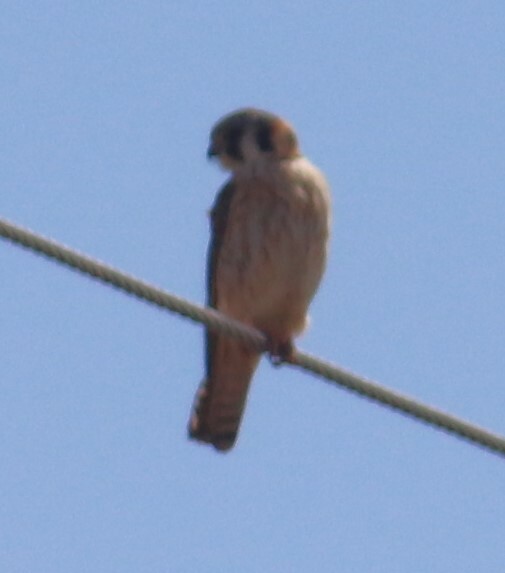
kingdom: Animalia
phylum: Chordata
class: Aves
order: Falconiformes
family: Falconidae
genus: Falco
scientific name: Falco sparverius
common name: American kestrel
